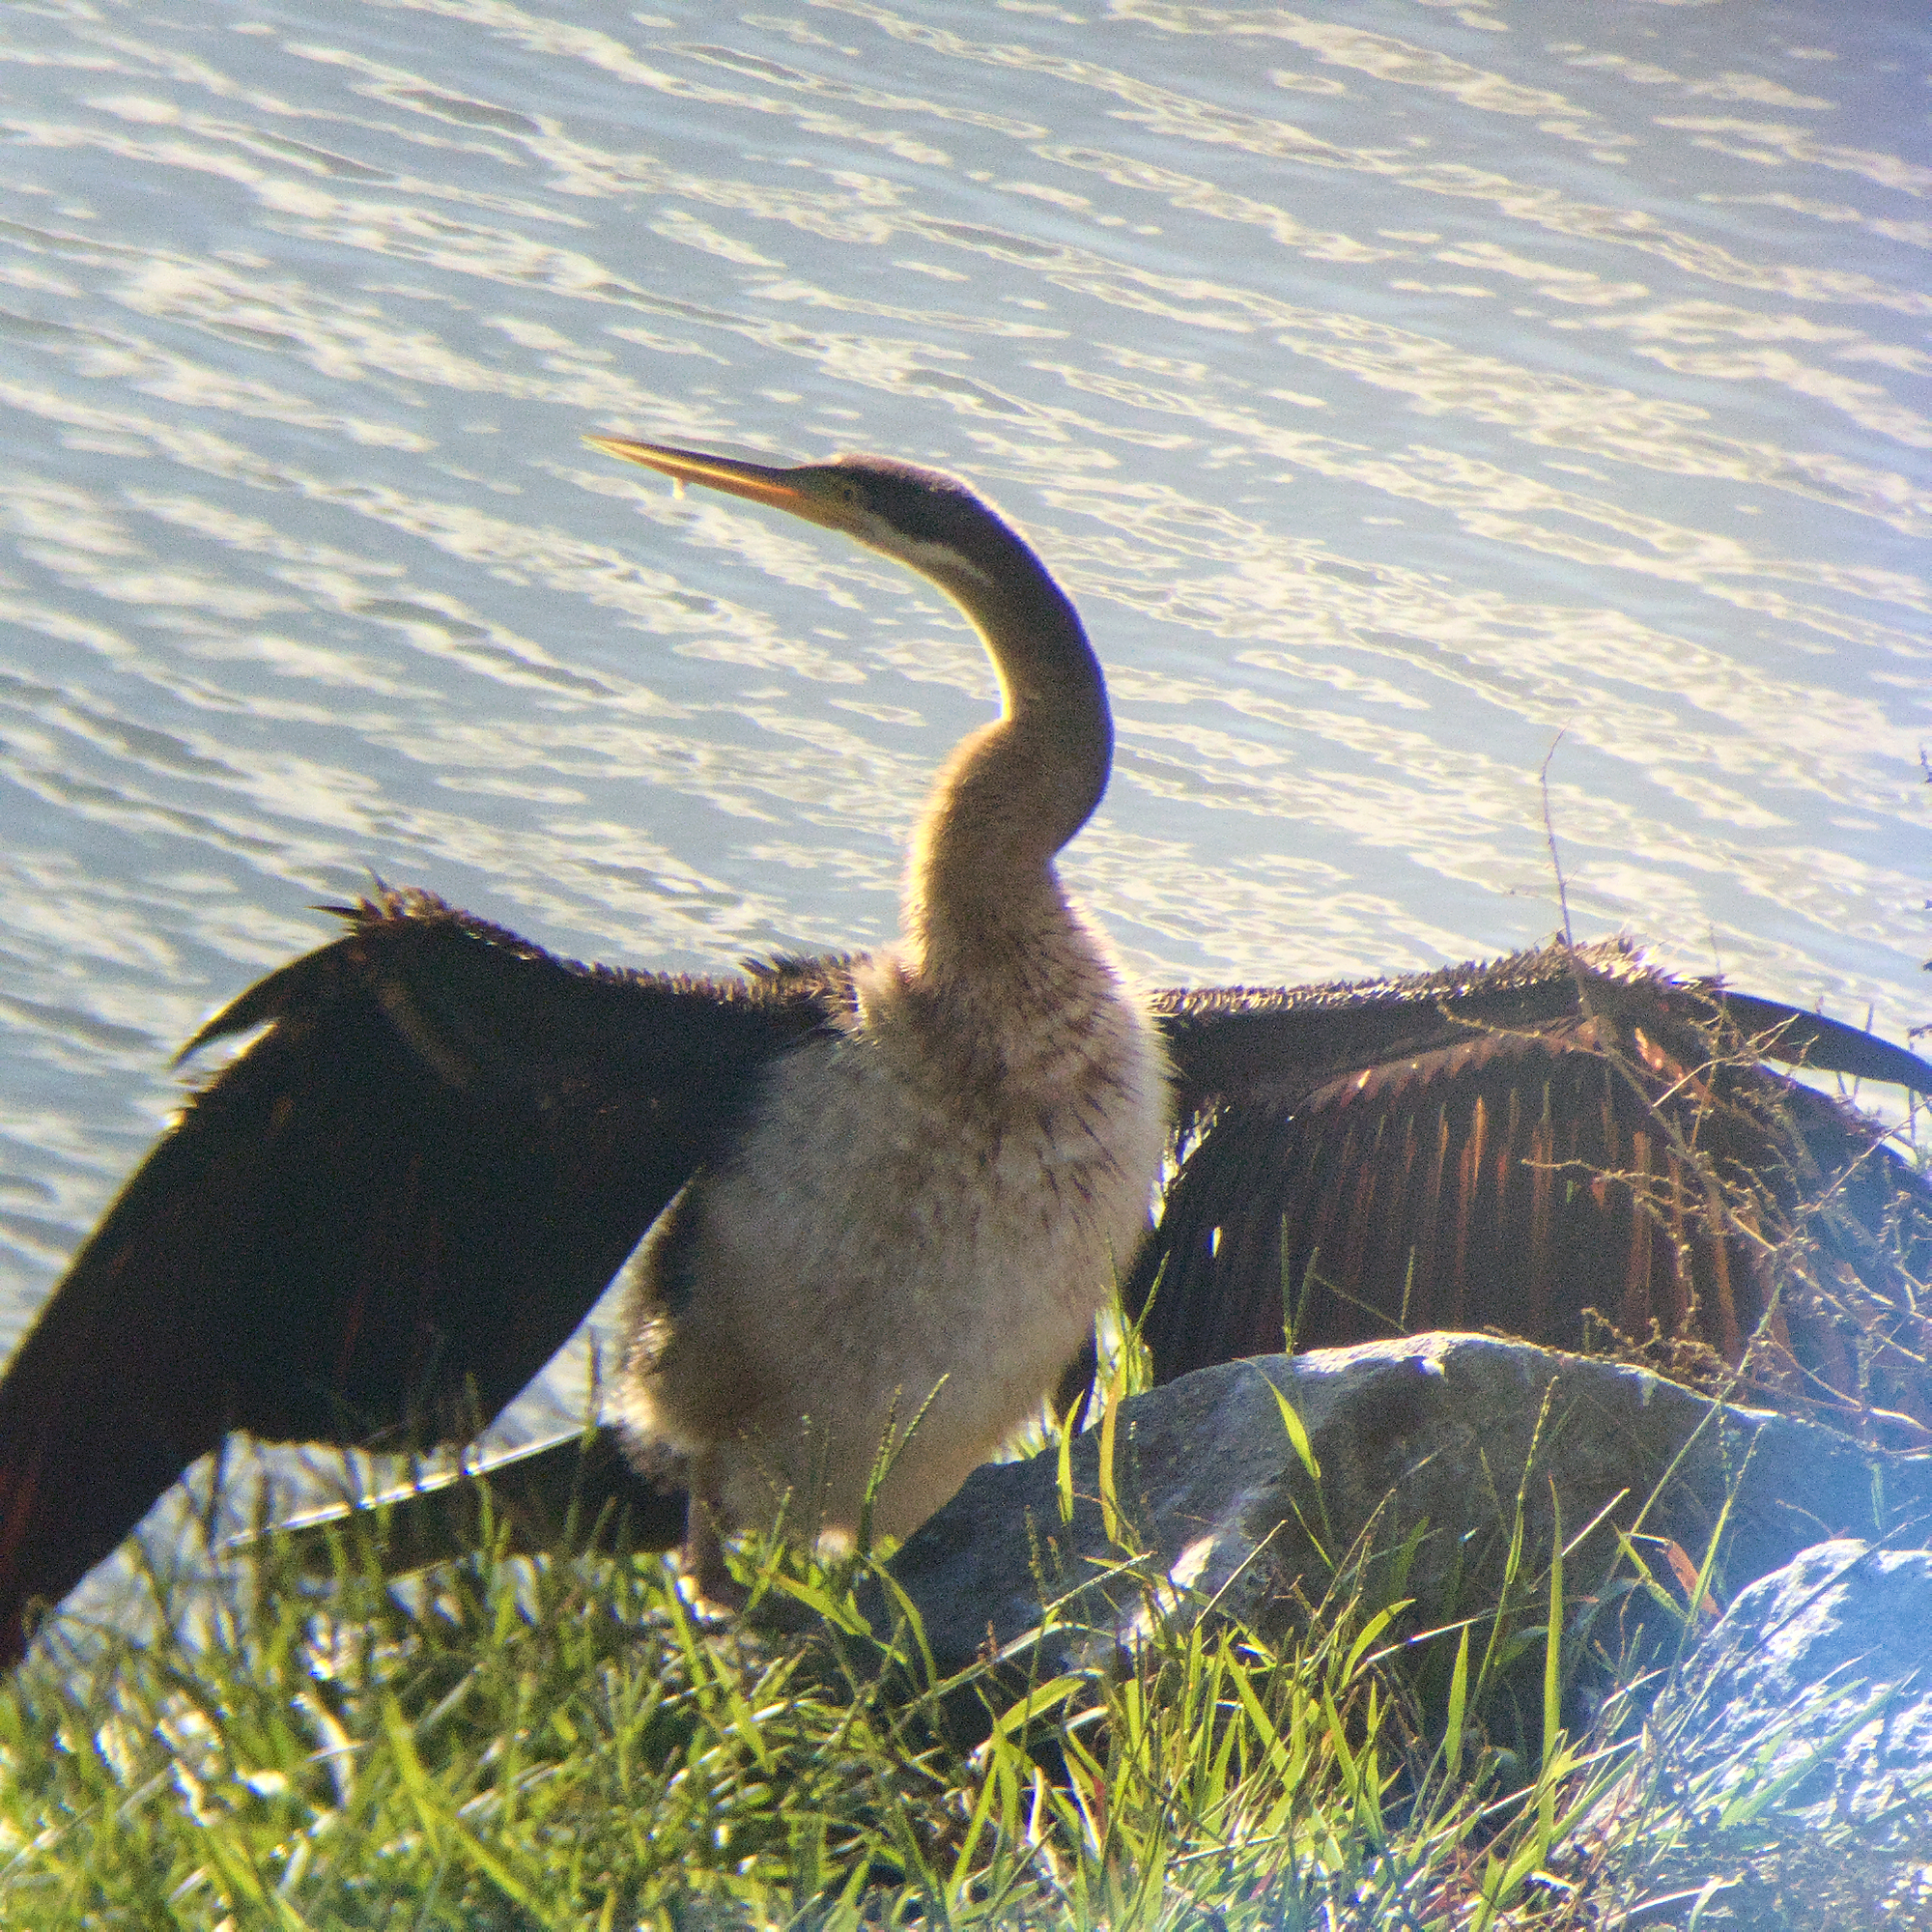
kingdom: Animalia
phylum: Chordata
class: Aves
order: Suliformes
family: Anhingidae
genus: Anhinga
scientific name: Anhinga novaehollandiae
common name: Australasian darter
